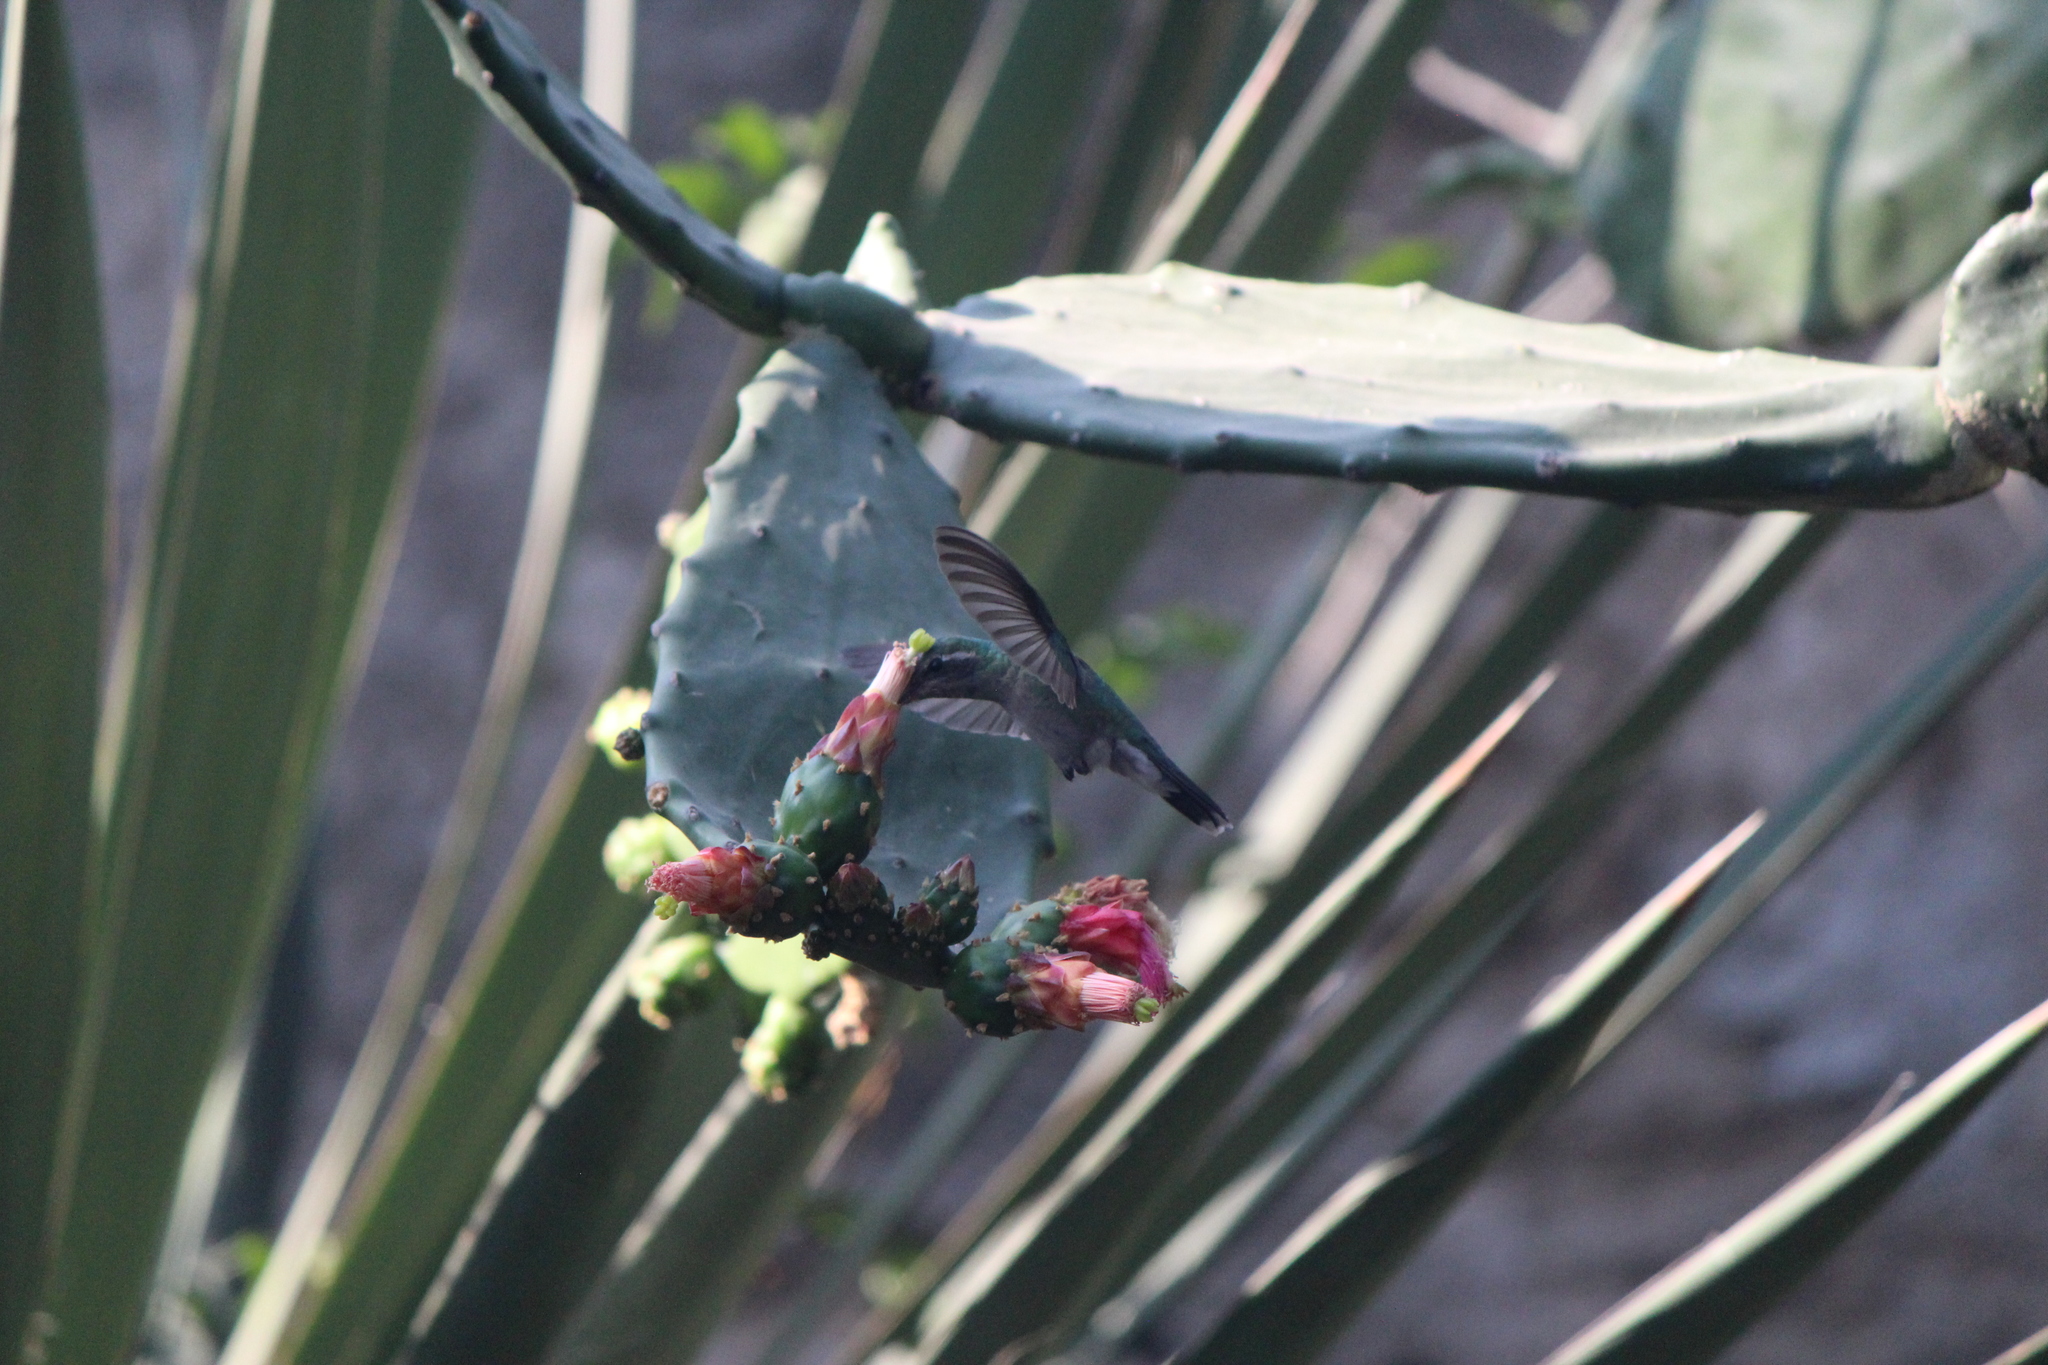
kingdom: Animalia
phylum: Chordata
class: Aves
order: Apodiformes
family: Trochilidae
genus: Cynanthus
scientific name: Cynanthus latirostris
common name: Broad-billed hummingbird
